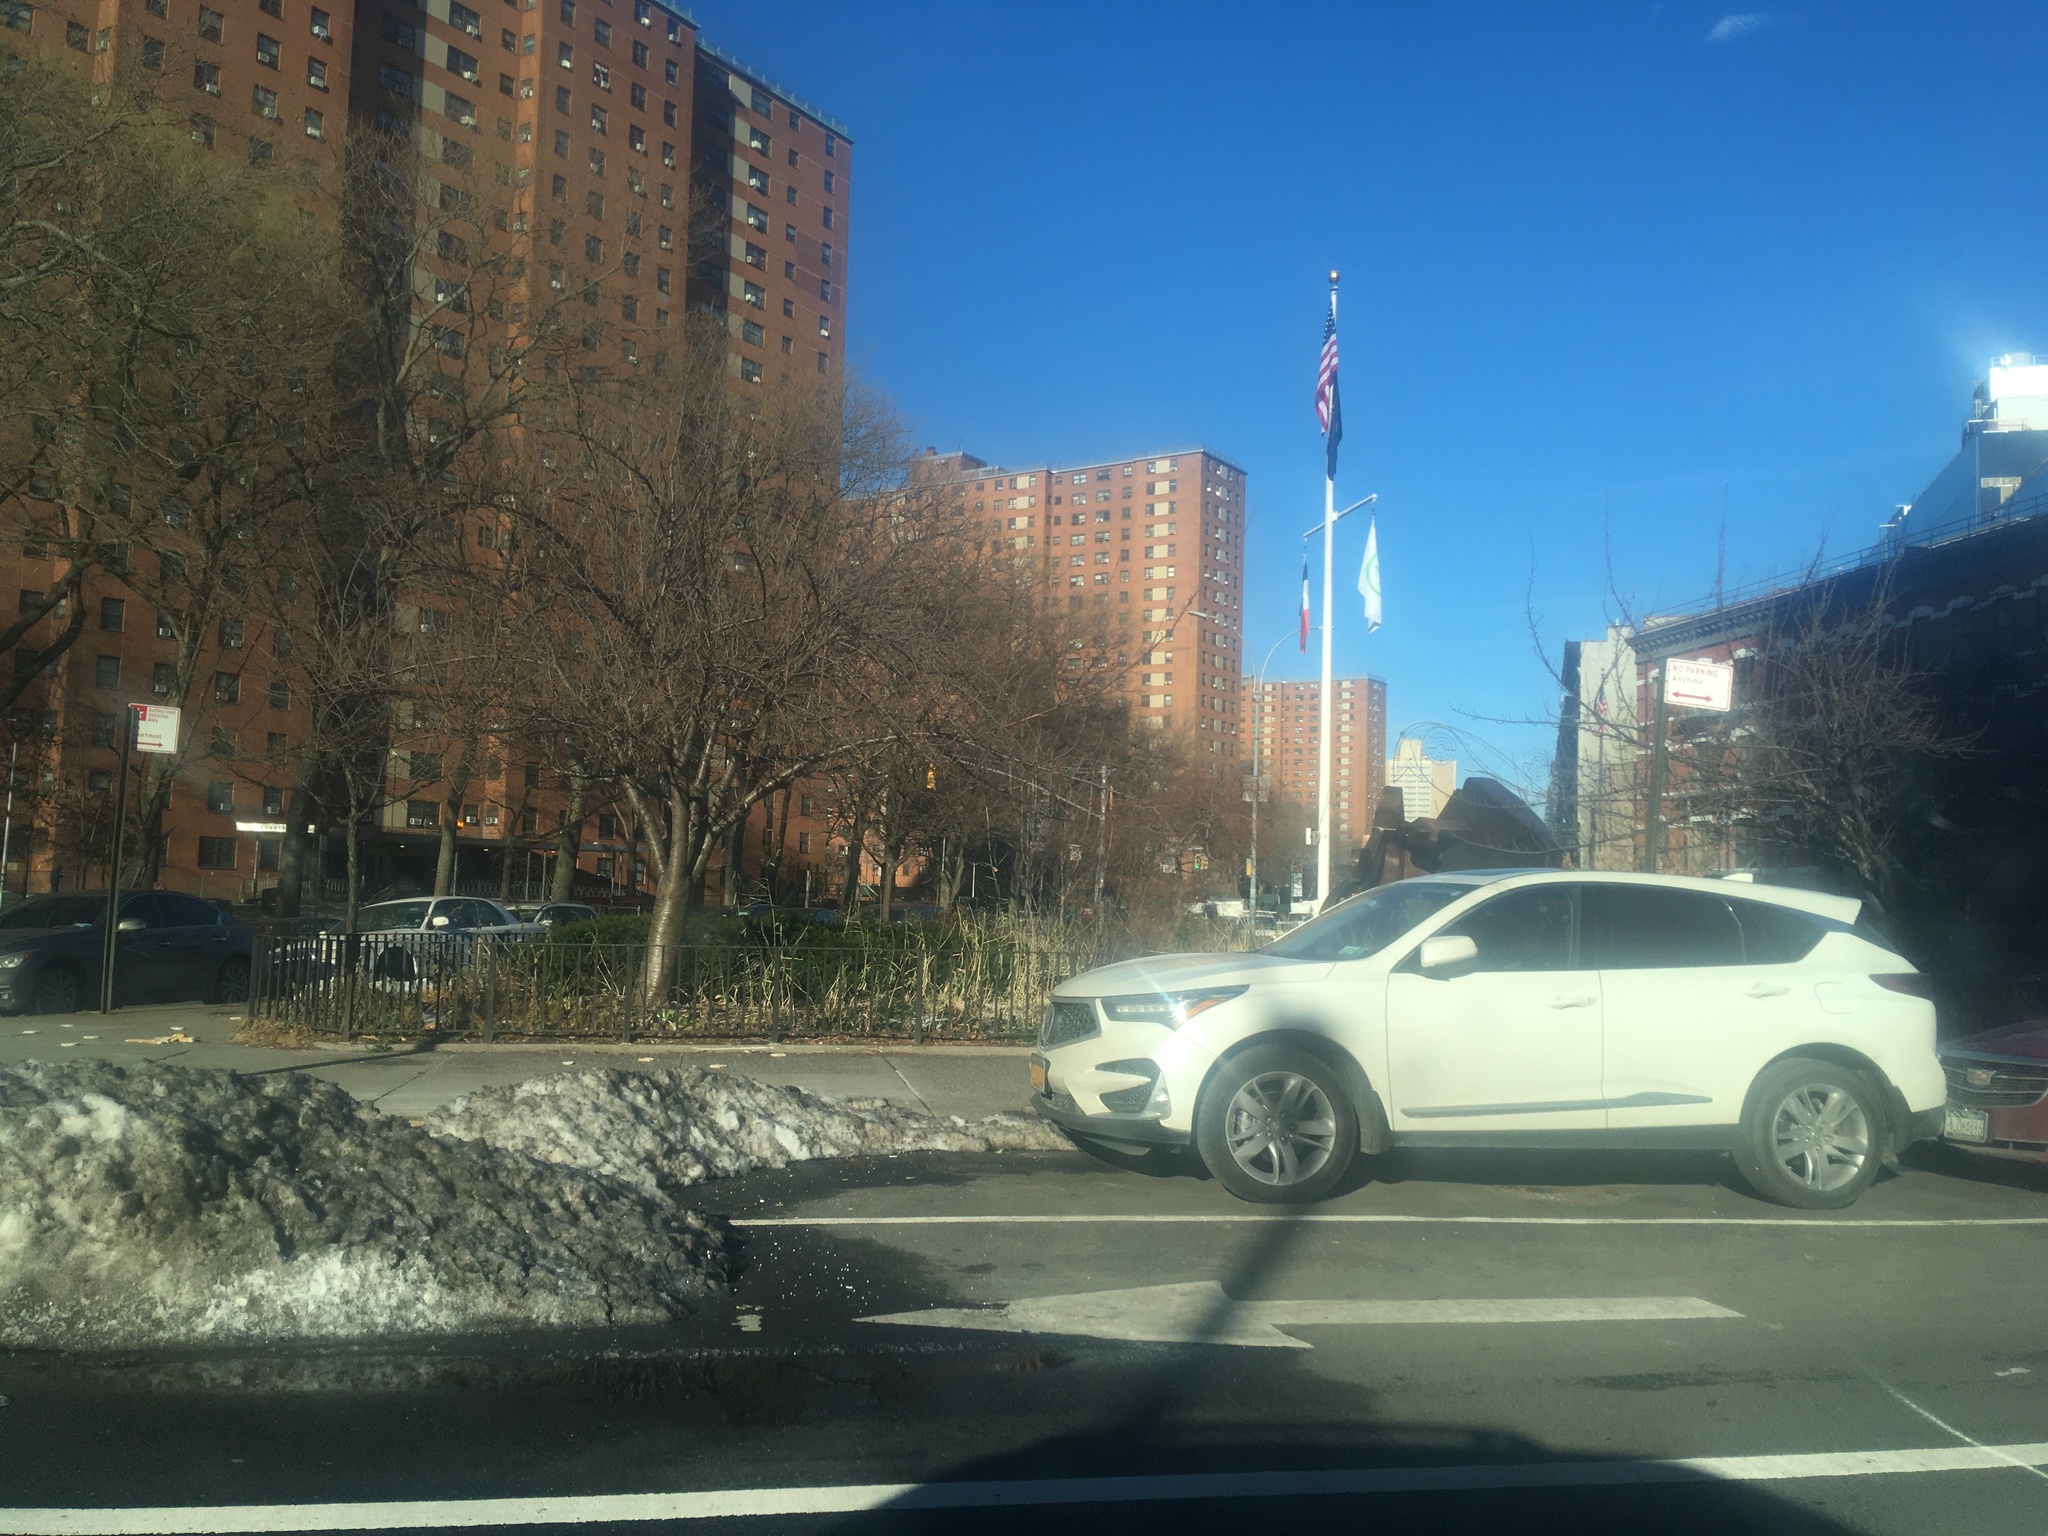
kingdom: Plantae
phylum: Tracheophyta
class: Liliopsida
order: Poales
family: Poaceae
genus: Phragmites
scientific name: Phragmites australis
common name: Common reed
